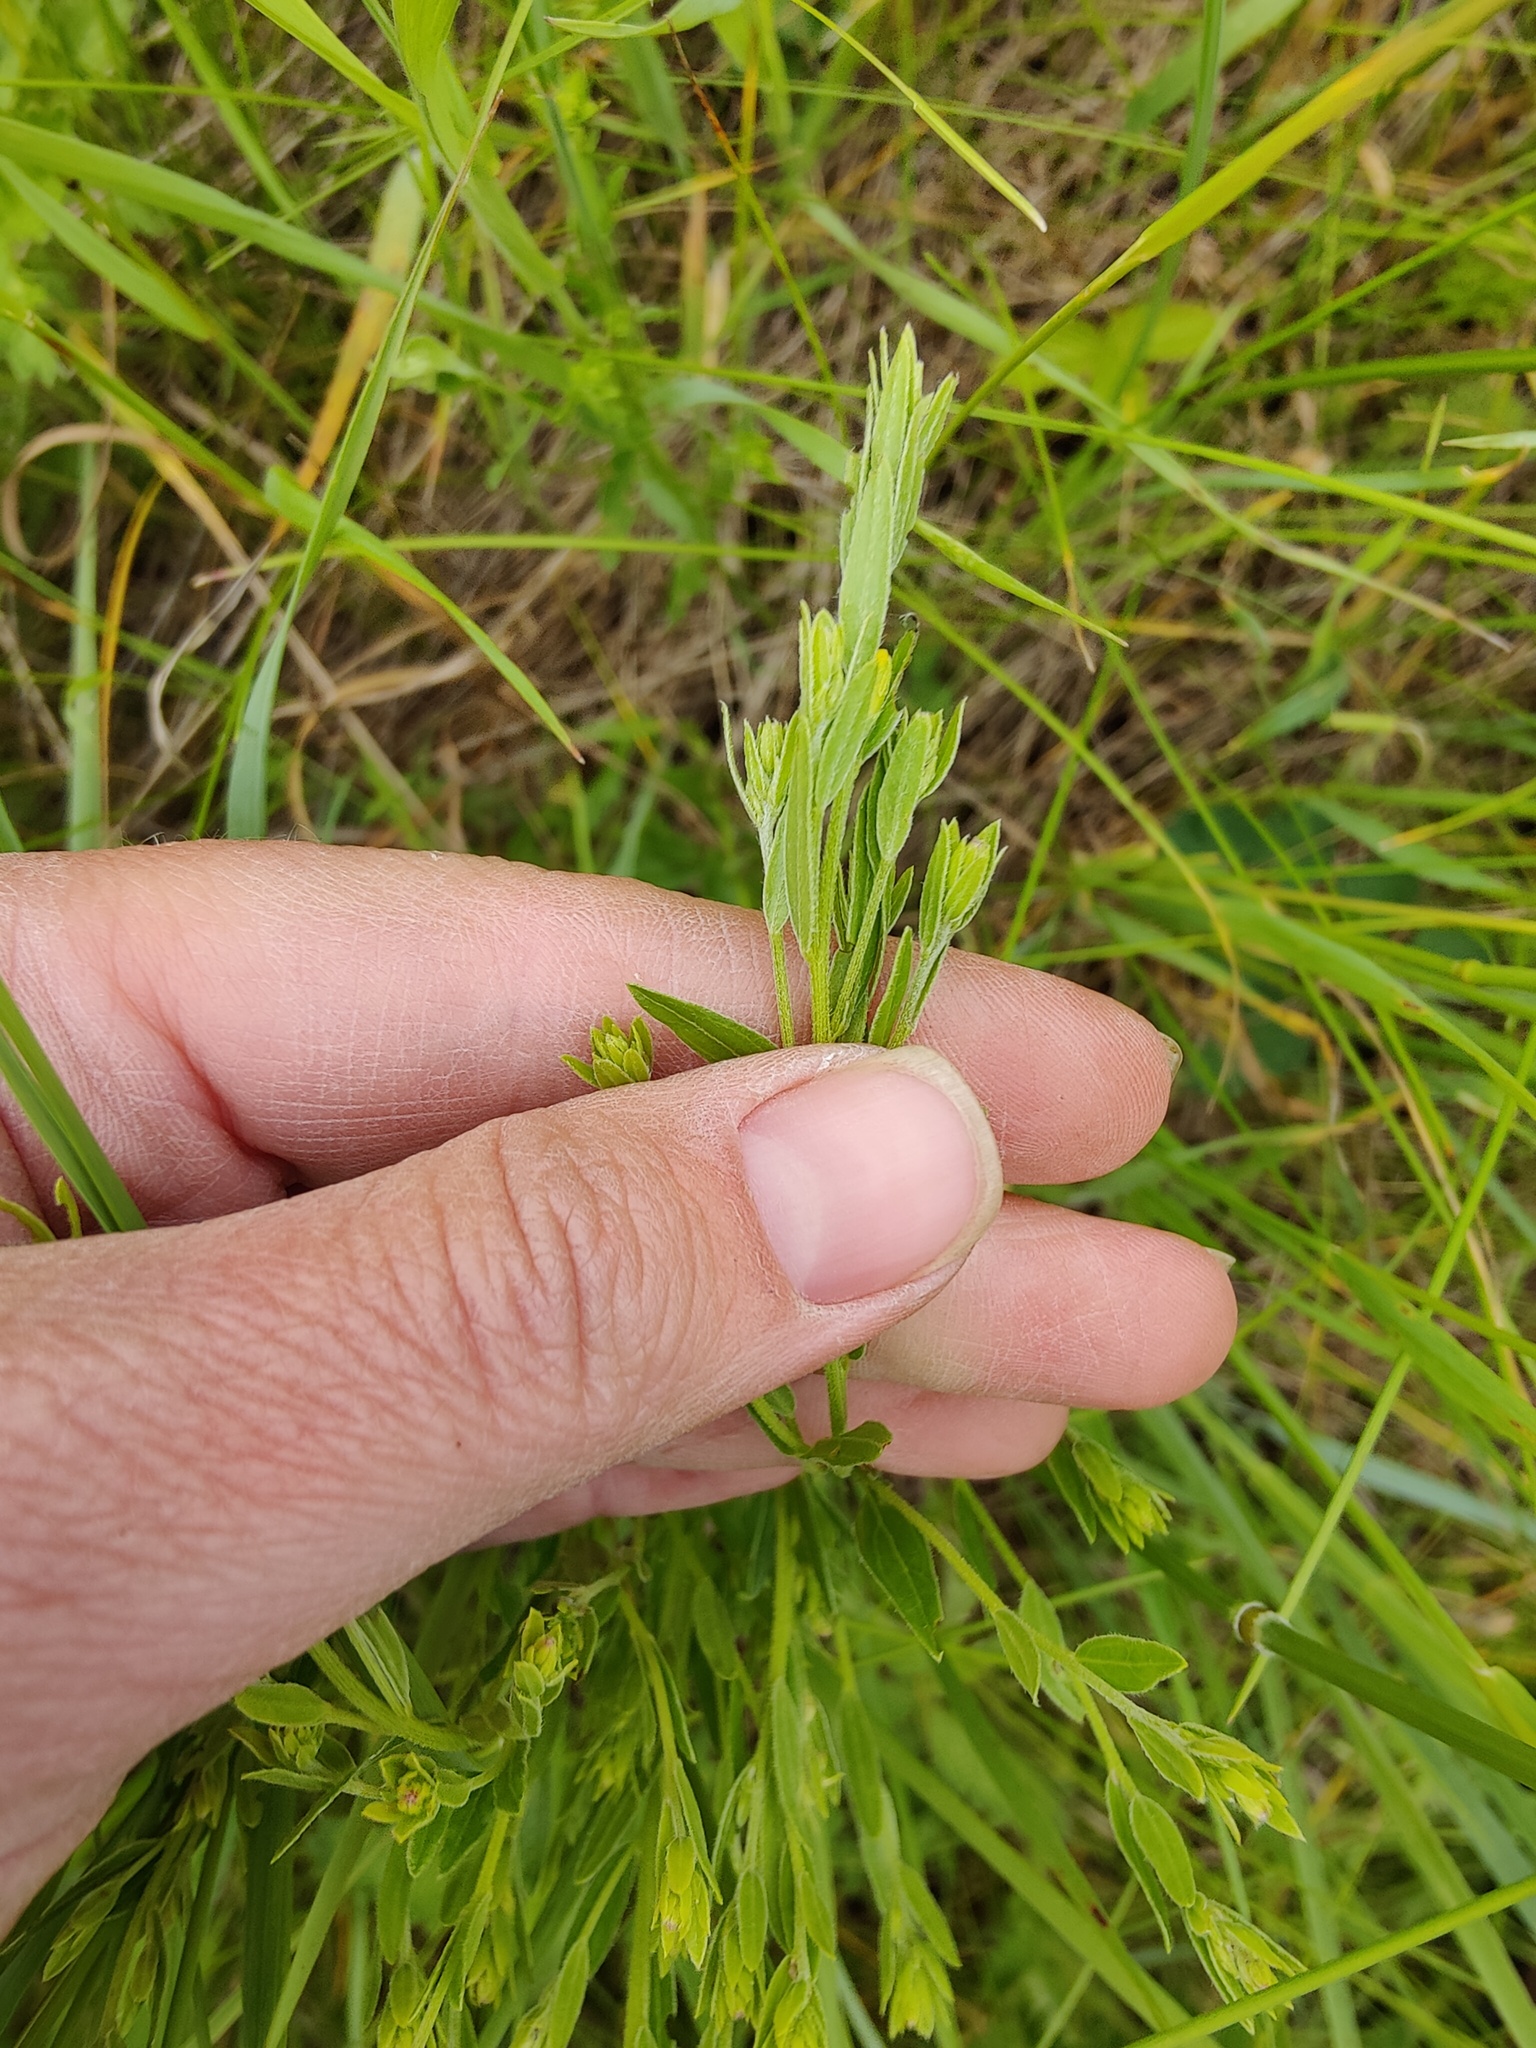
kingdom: Plantae
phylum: Tracheophyta
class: Magnoliopsida
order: Fabales
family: Fabaceae
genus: Genista
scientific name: Genista tinctoria
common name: Dyer's greenweed
